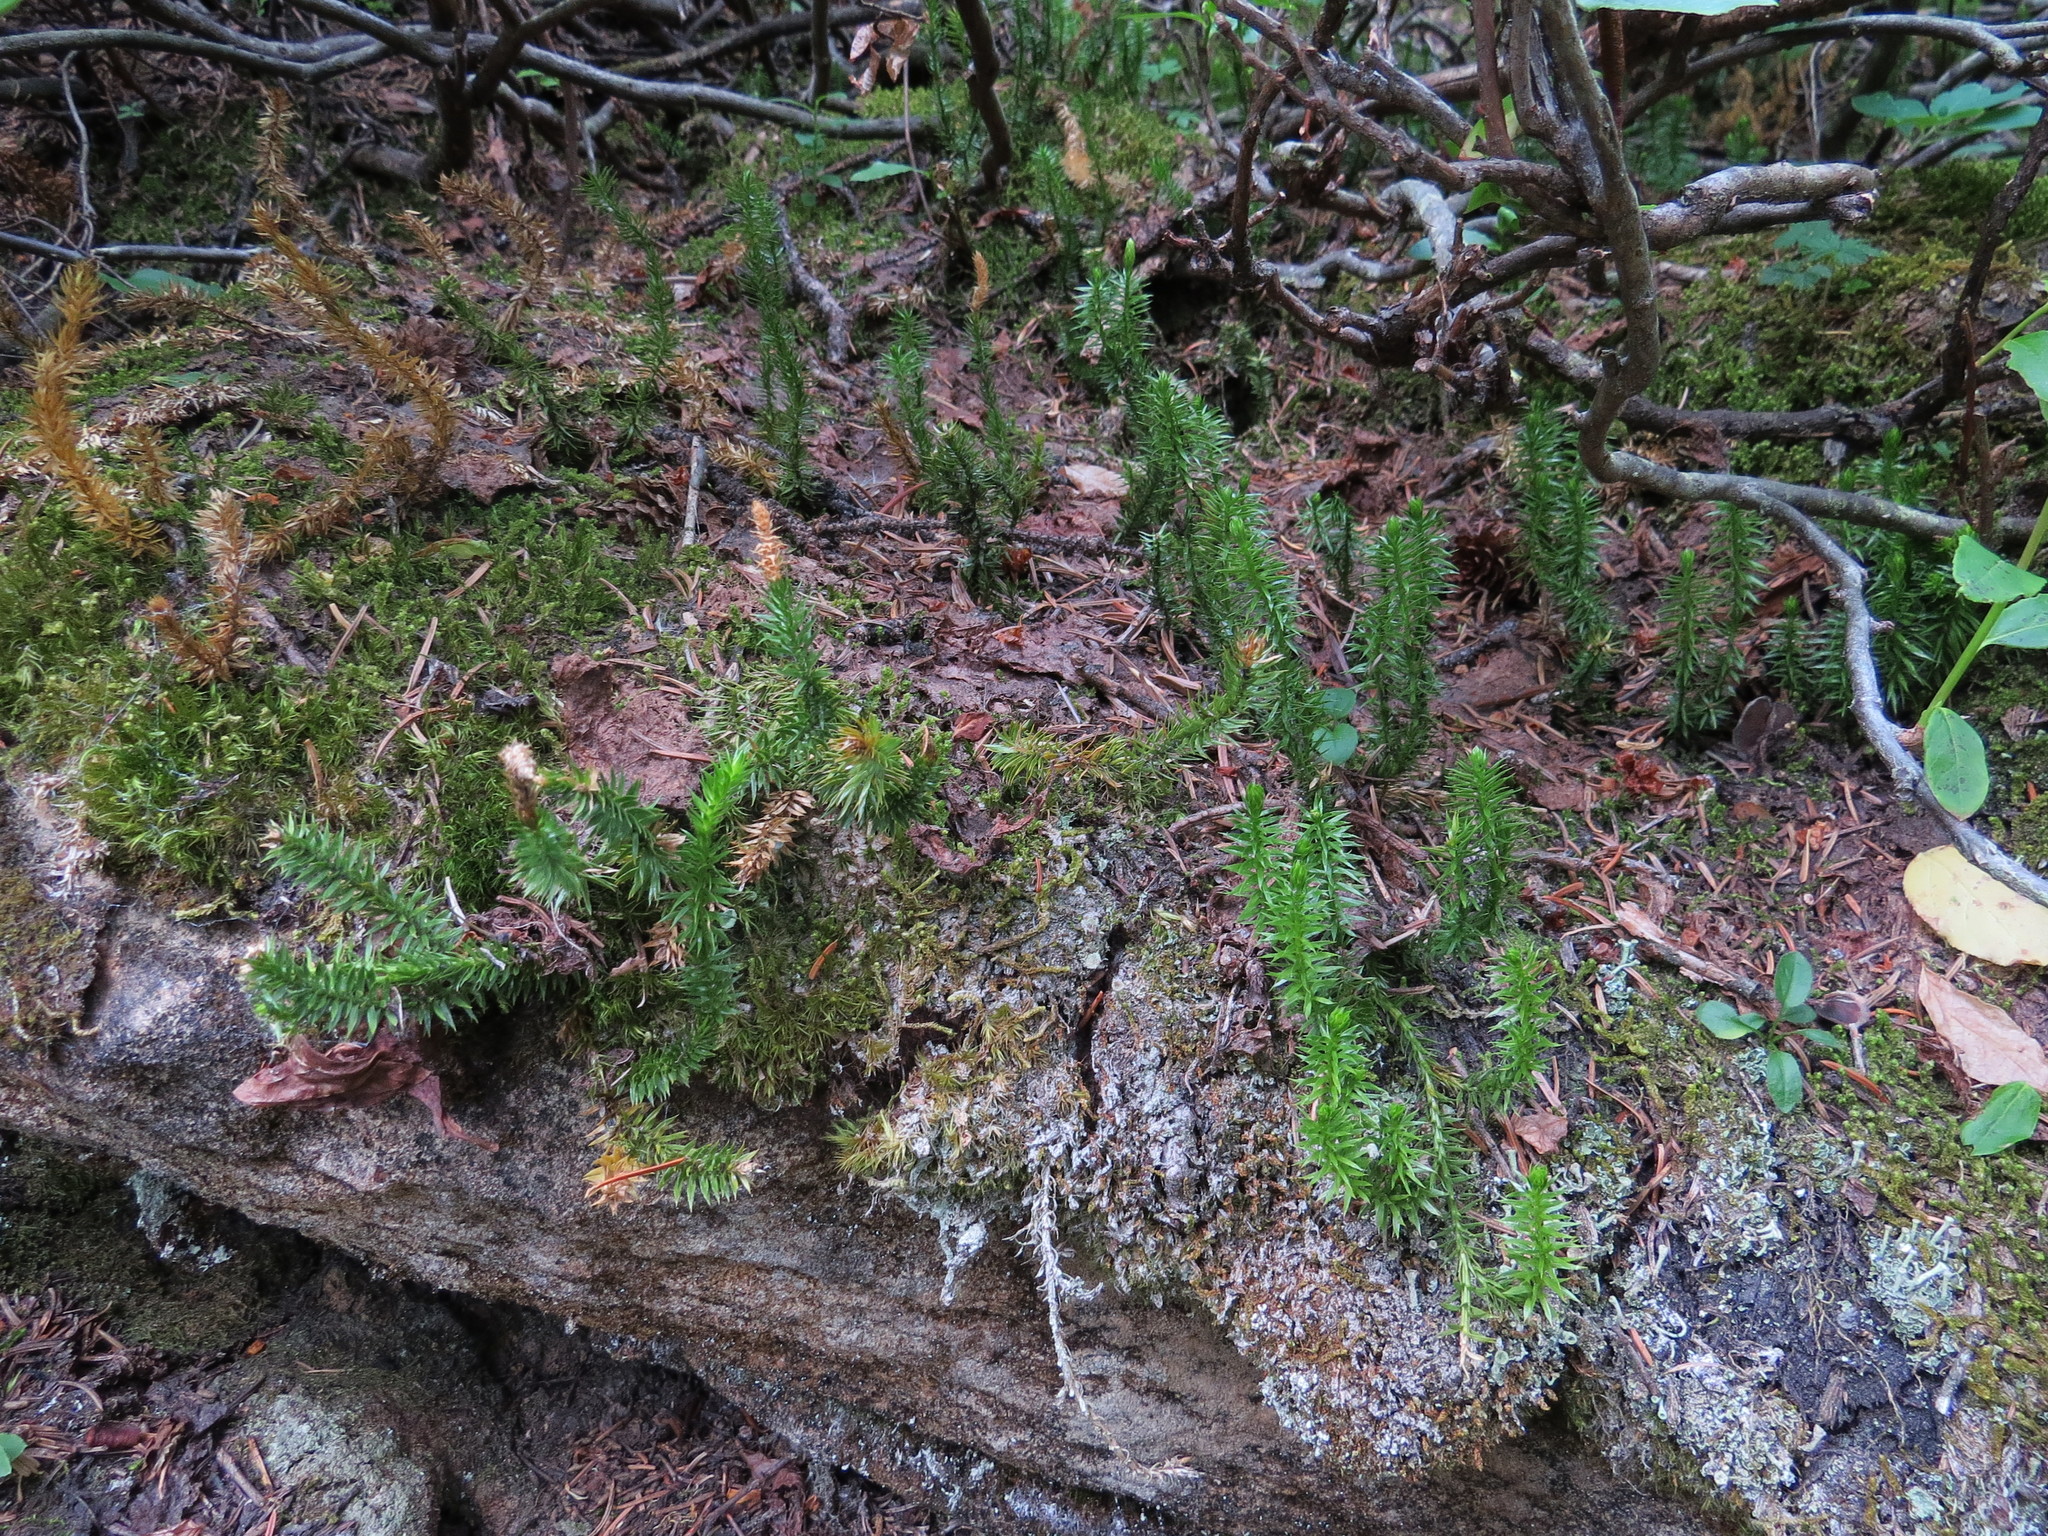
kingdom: Plantae
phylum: Tracheophyta
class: Lycopodiopsida
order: Lycopodiales
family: Lycopodiaceae
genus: Spinulum
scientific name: Spinulum annotinum
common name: Interrupted club-moss
